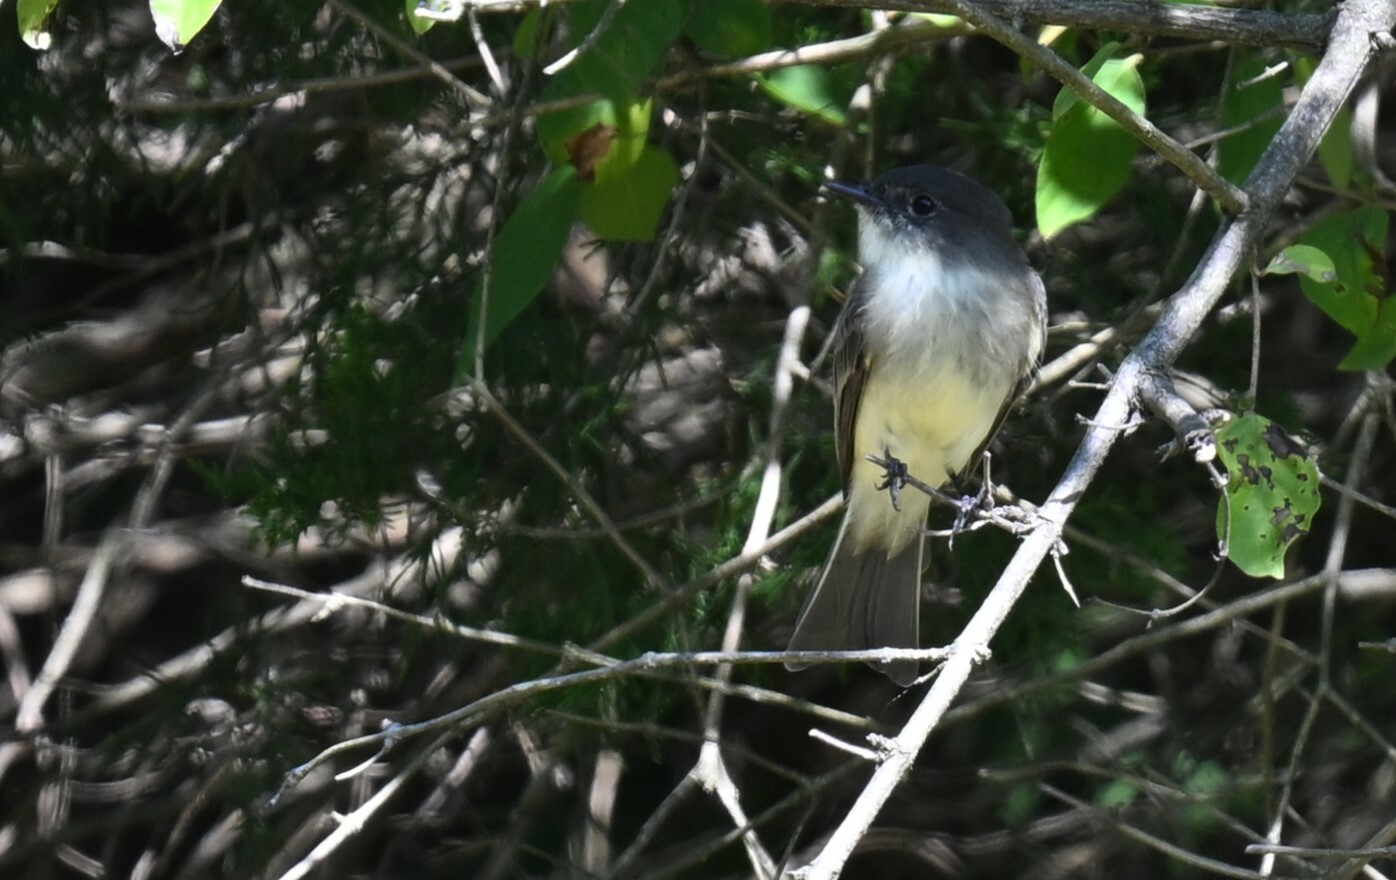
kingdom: Animalia
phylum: Chordata
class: Aves
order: Passeriformes
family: Tyrannidae
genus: Sayornis
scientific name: Sayornis phoebe
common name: Eastern phoebe
